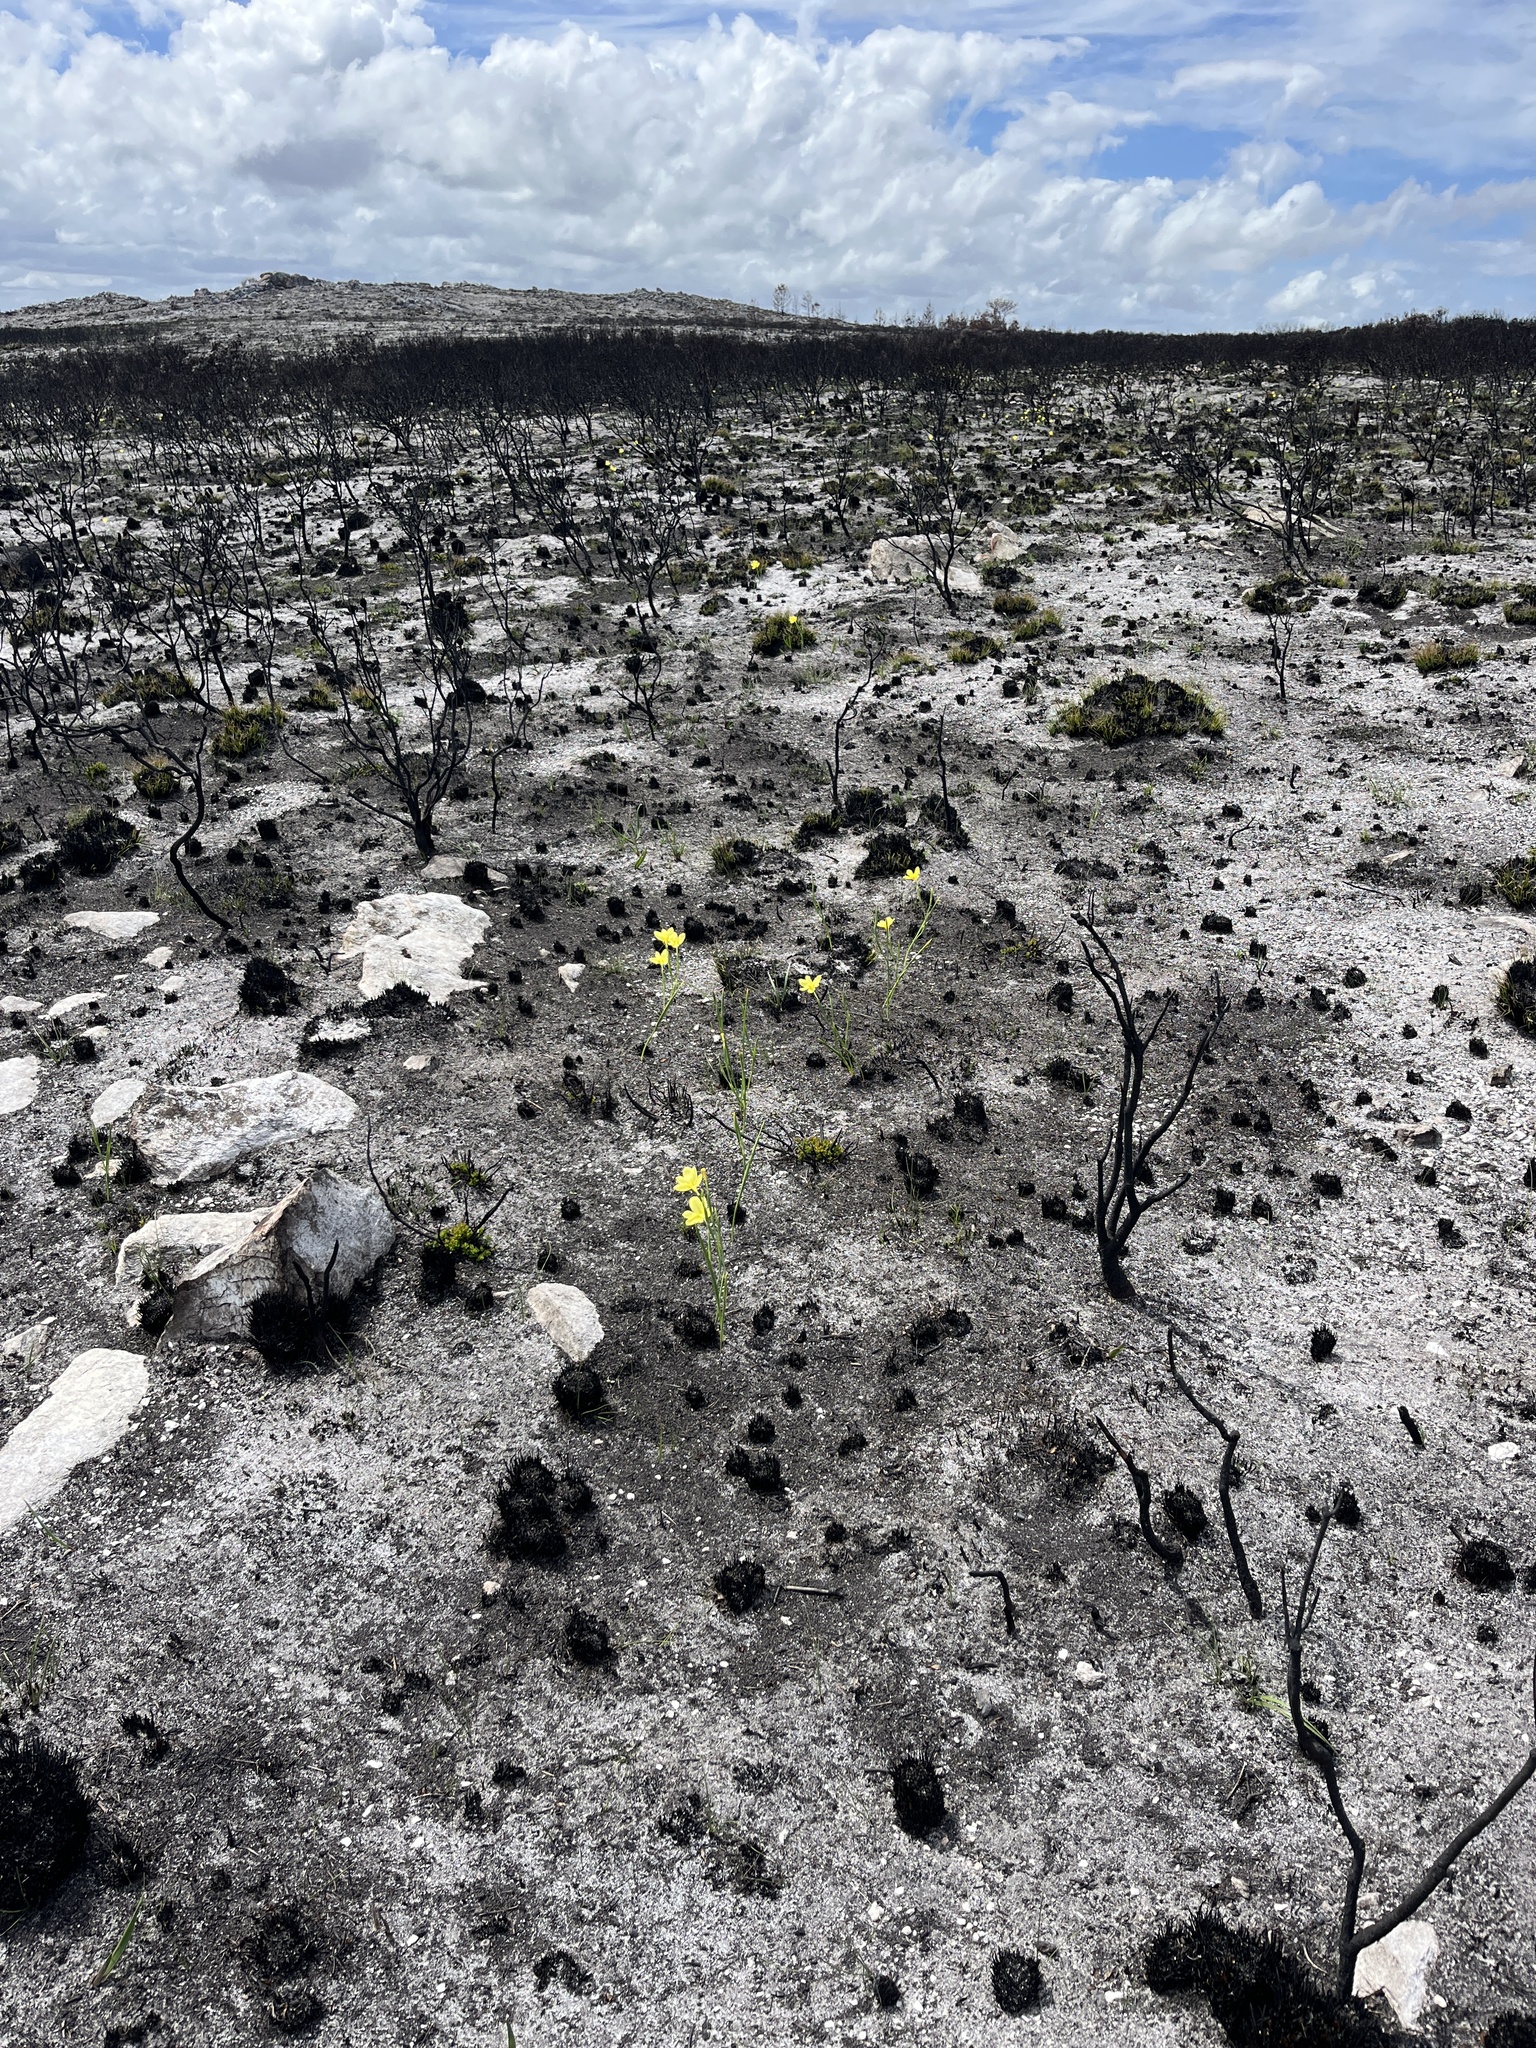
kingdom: Plantae
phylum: Tracheophyta
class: Liliopsida
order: Asparagales
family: Iridaceae
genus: Moraea
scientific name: Moraea pyrophila
